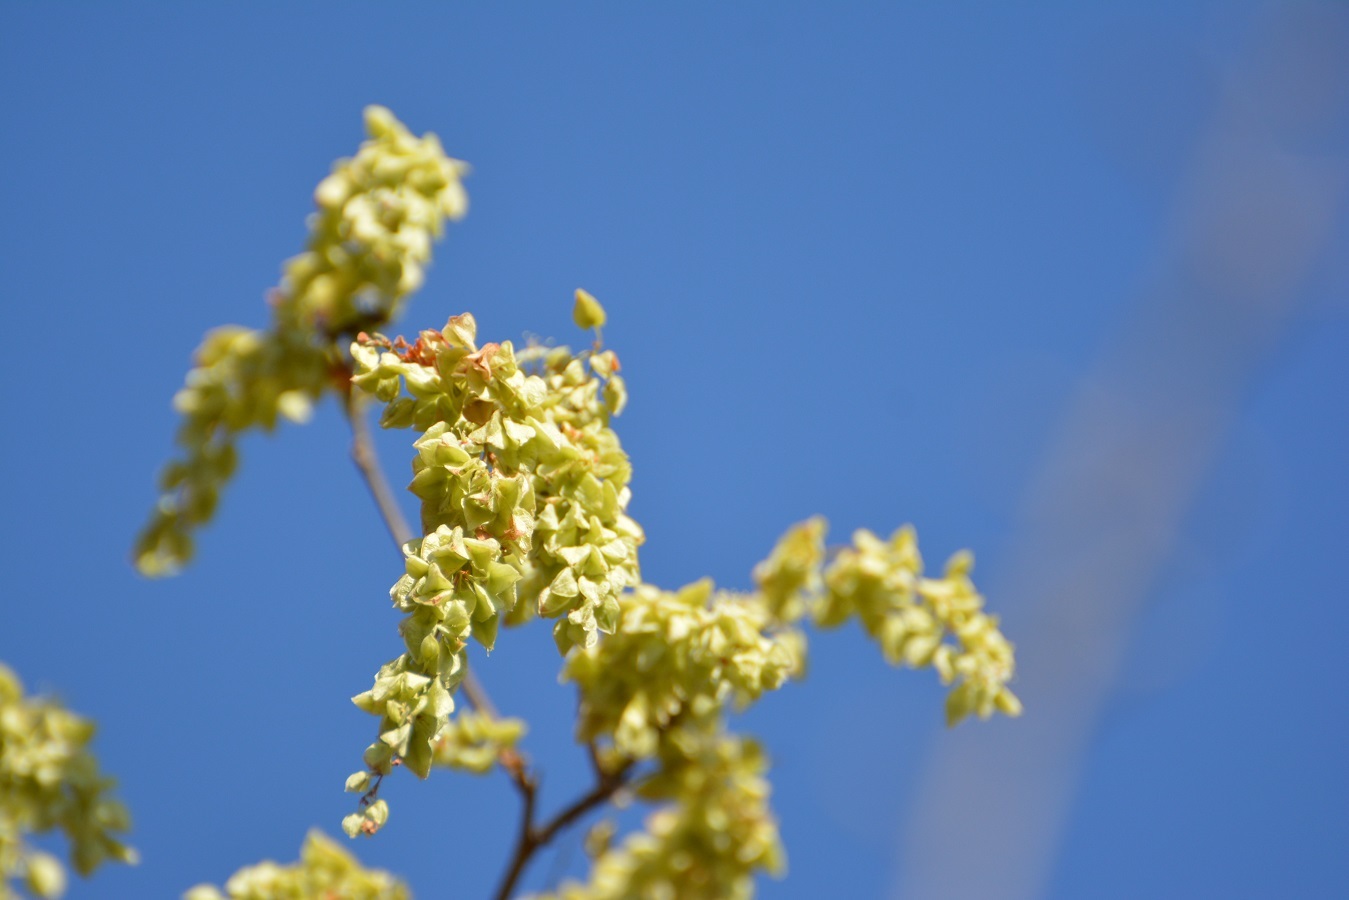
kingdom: Plantae
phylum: Tracheophyta
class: Magnoliopsida
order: Caryophyllales
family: Polygonaceae
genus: Gymnopodium
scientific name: Gymnopodium floribundum
